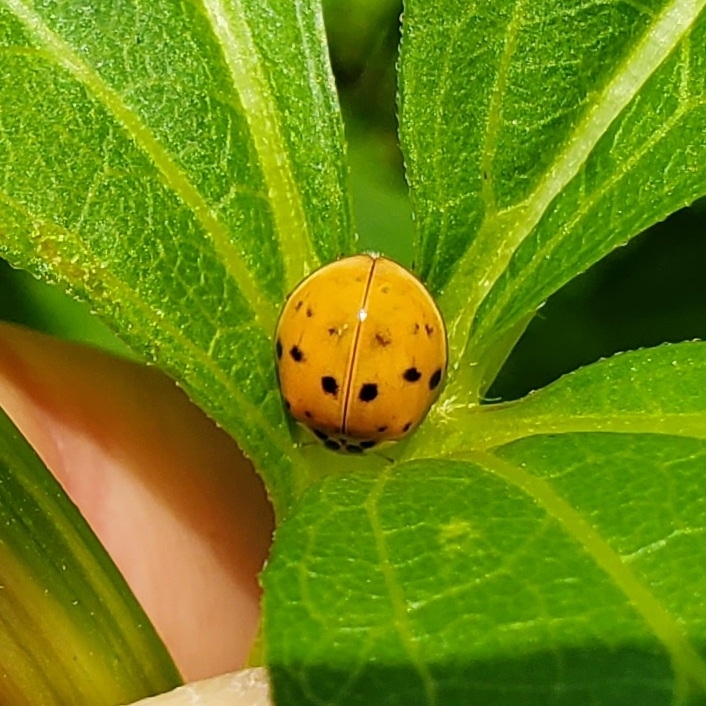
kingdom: Animalia
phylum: Arthropoda
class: Insecta
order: Coleoptera
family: Coccinellidae
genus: Harmonia
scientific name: Harmonia axyridis
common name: Harlequin ladybird
